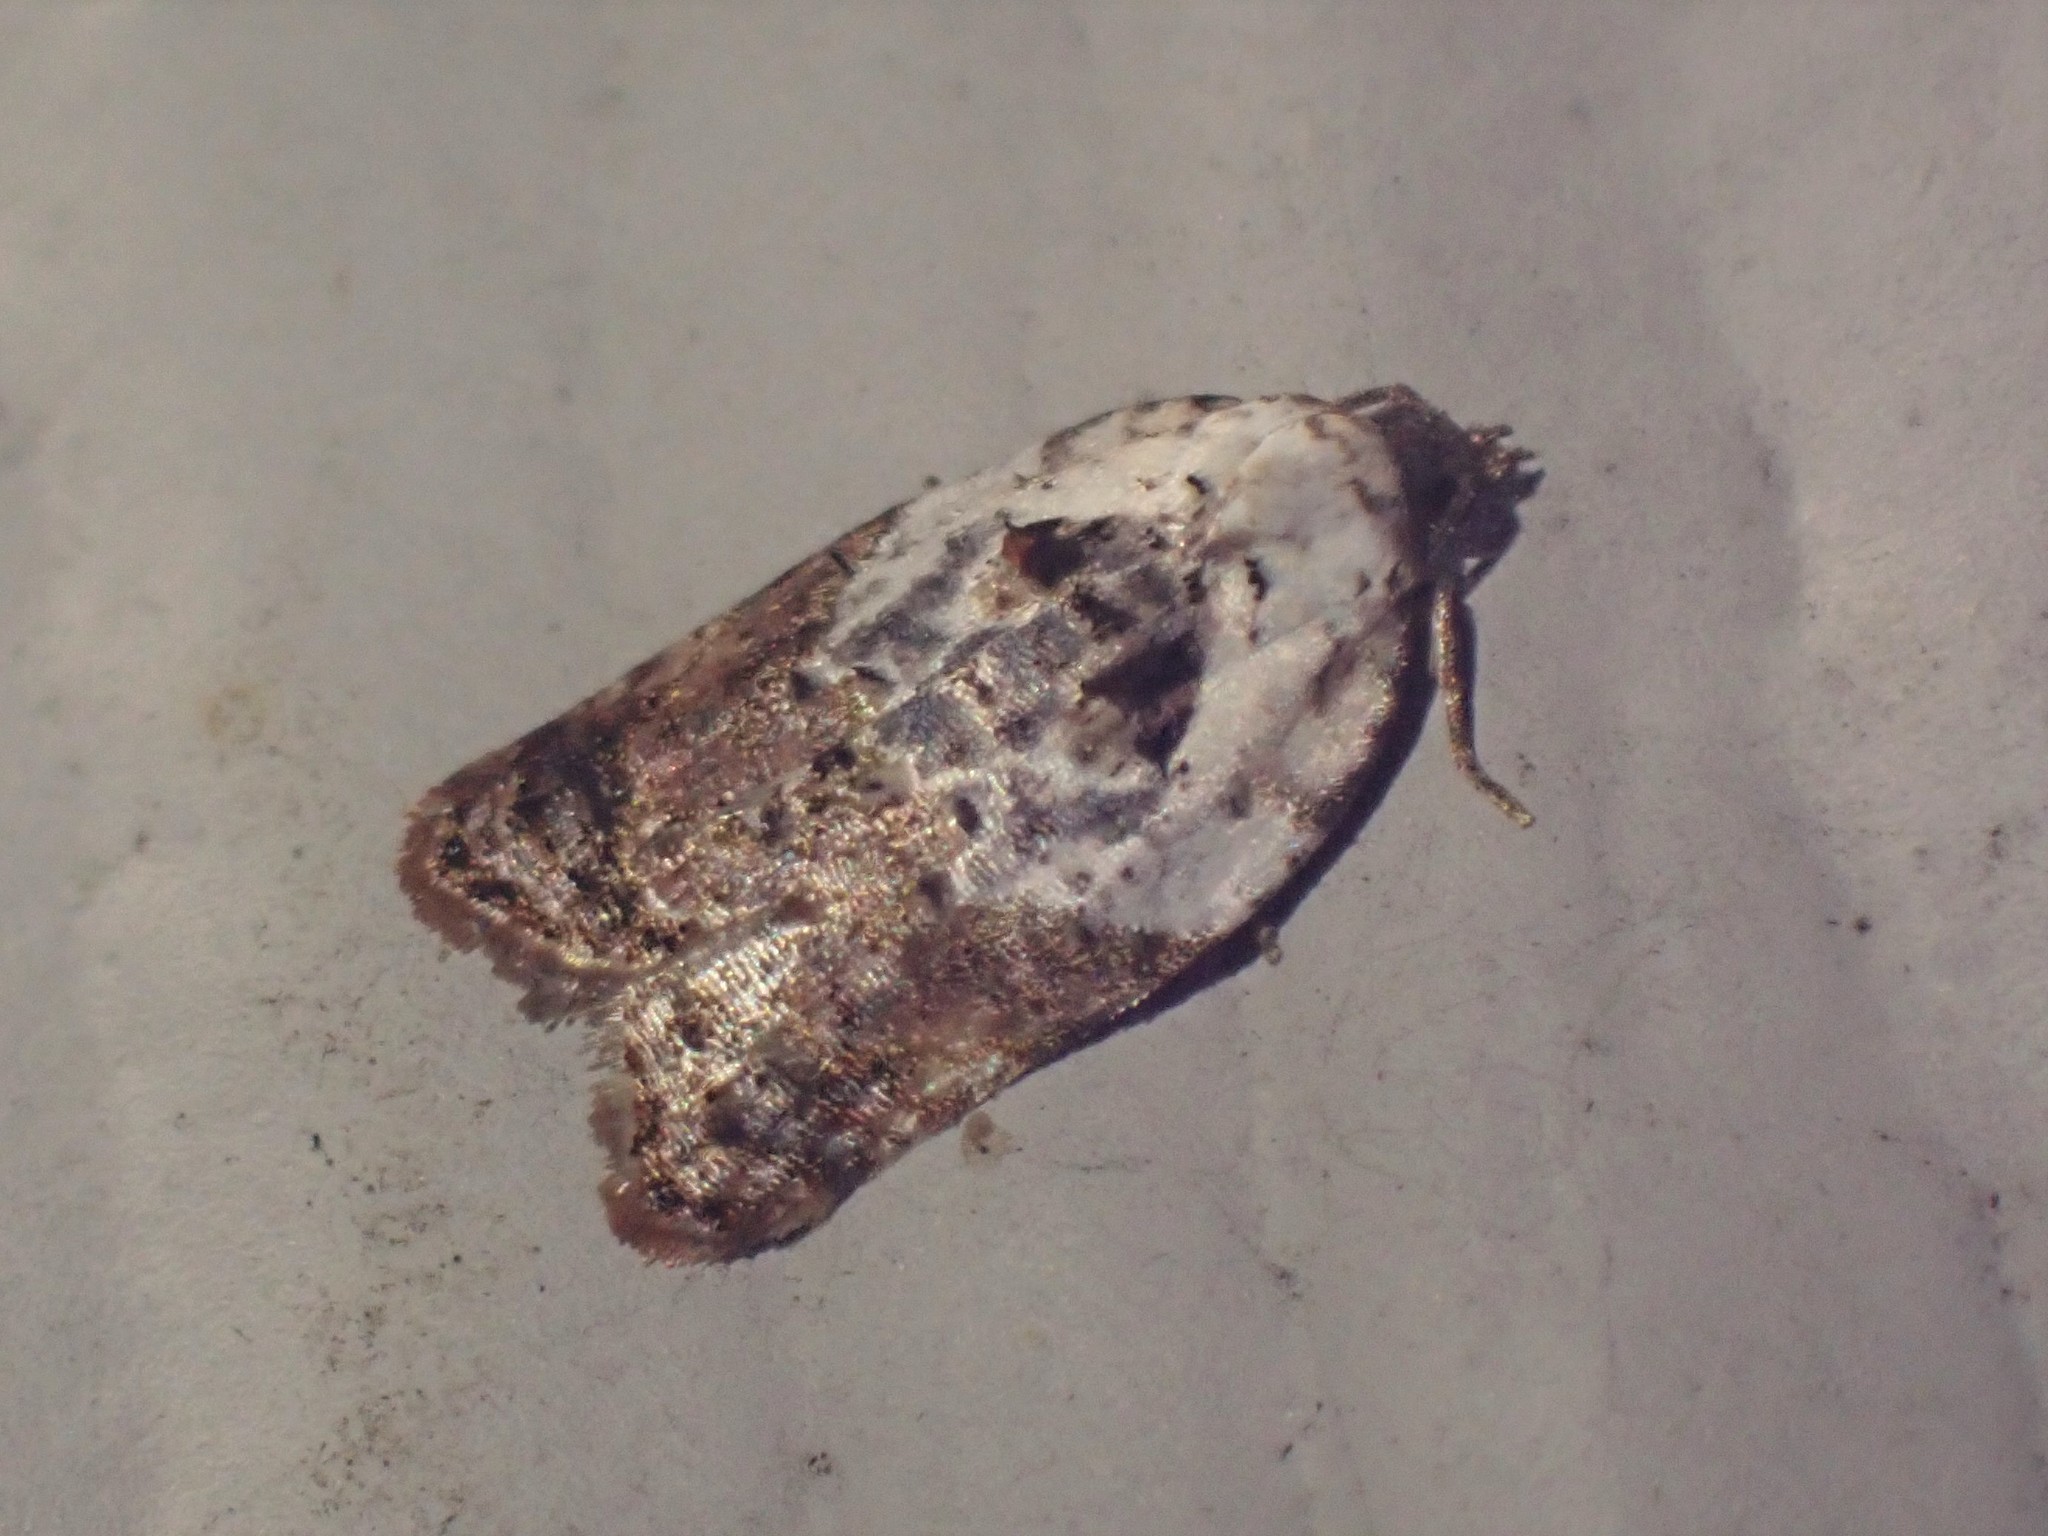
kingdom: Animalia
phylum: Arthropoda
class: Insecta
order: Lepidoptera
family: Tortricidae
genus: Acleris
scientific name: Acleris variegana
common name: Garden rose tortrix
